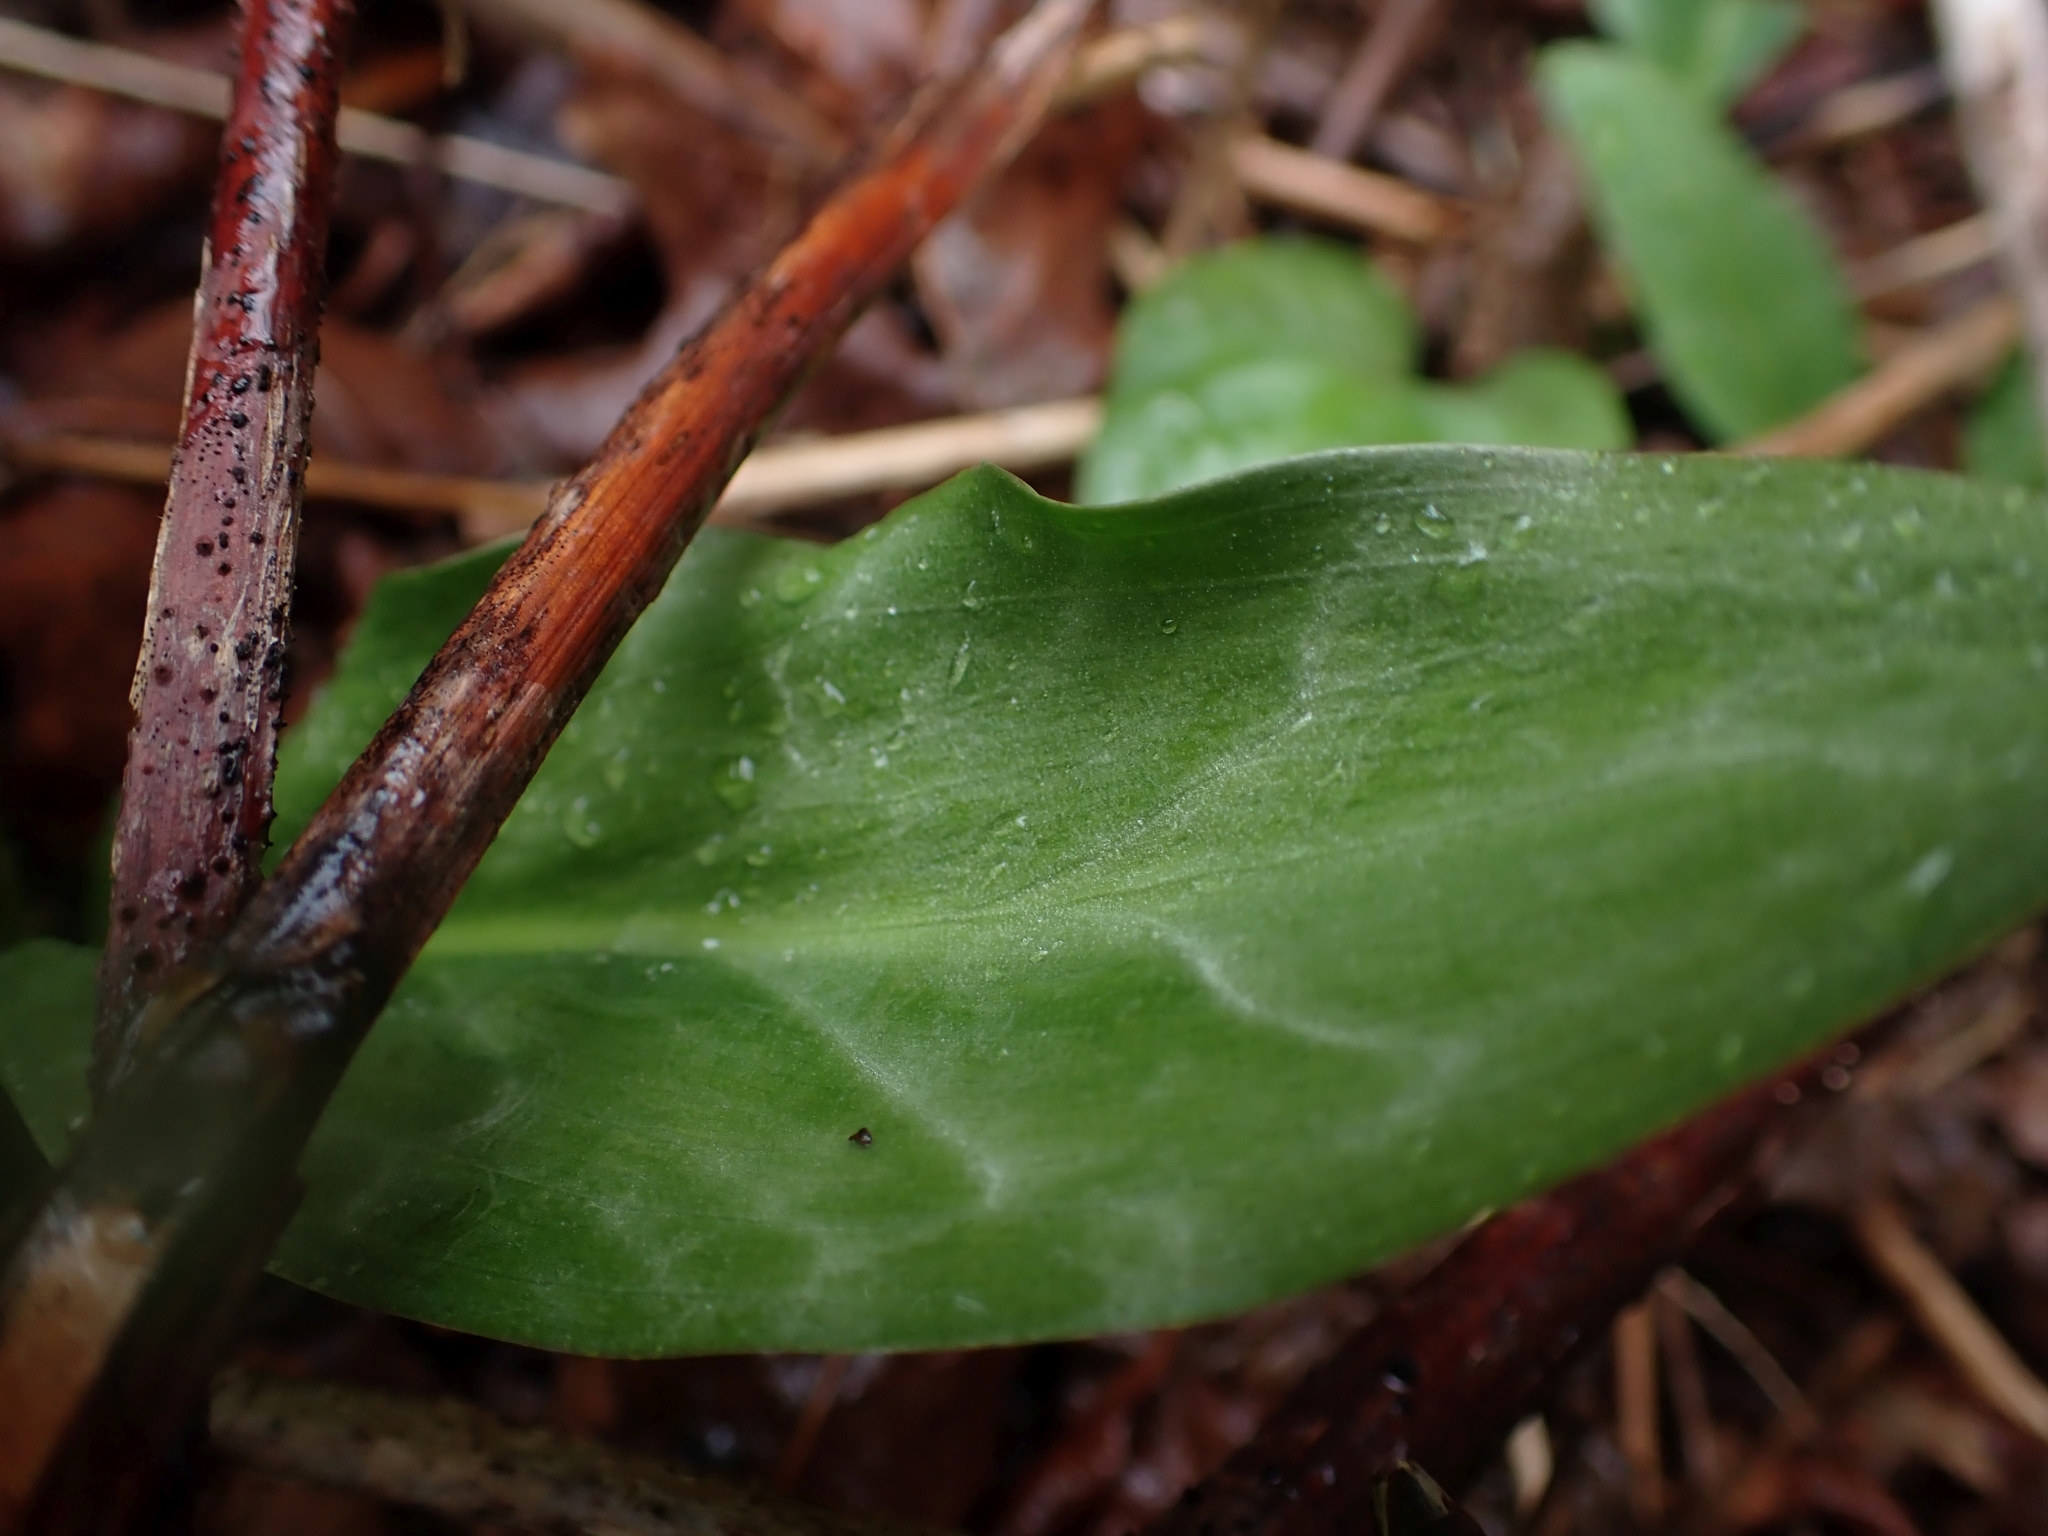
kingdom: Plantae
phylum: Tracheophyta
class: Liliopsida
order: Liliales
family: Liliaceae
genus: Erythronium
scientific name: Erythronium revolutum
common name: Pink fawn-lily
